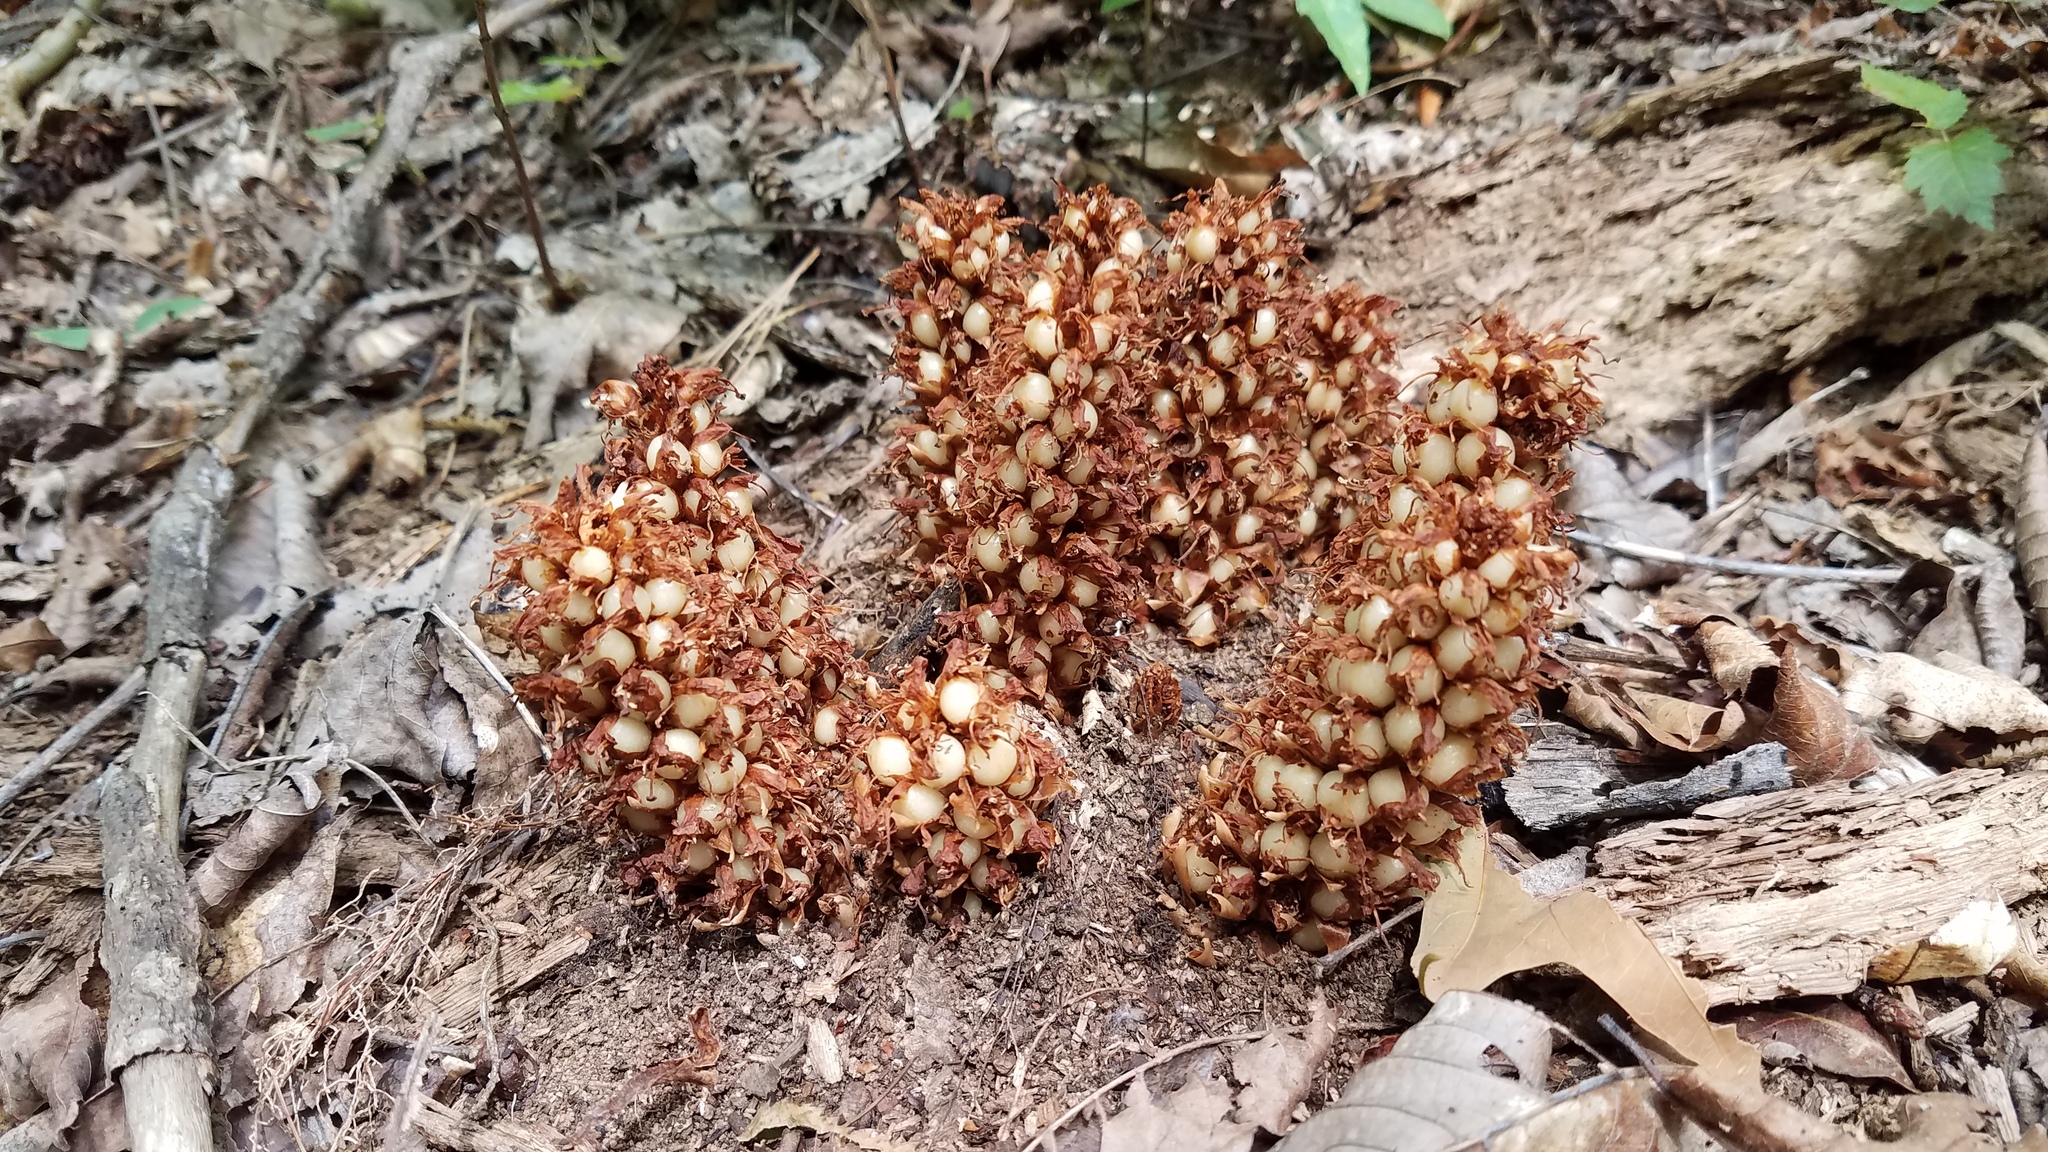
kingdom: Plantae
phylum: Tracheophyta
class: Magnoliopsida
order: Lamiales
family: Orobanchaceae
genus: Conopholis
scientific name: Conopholis americana
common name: American cancer-root
